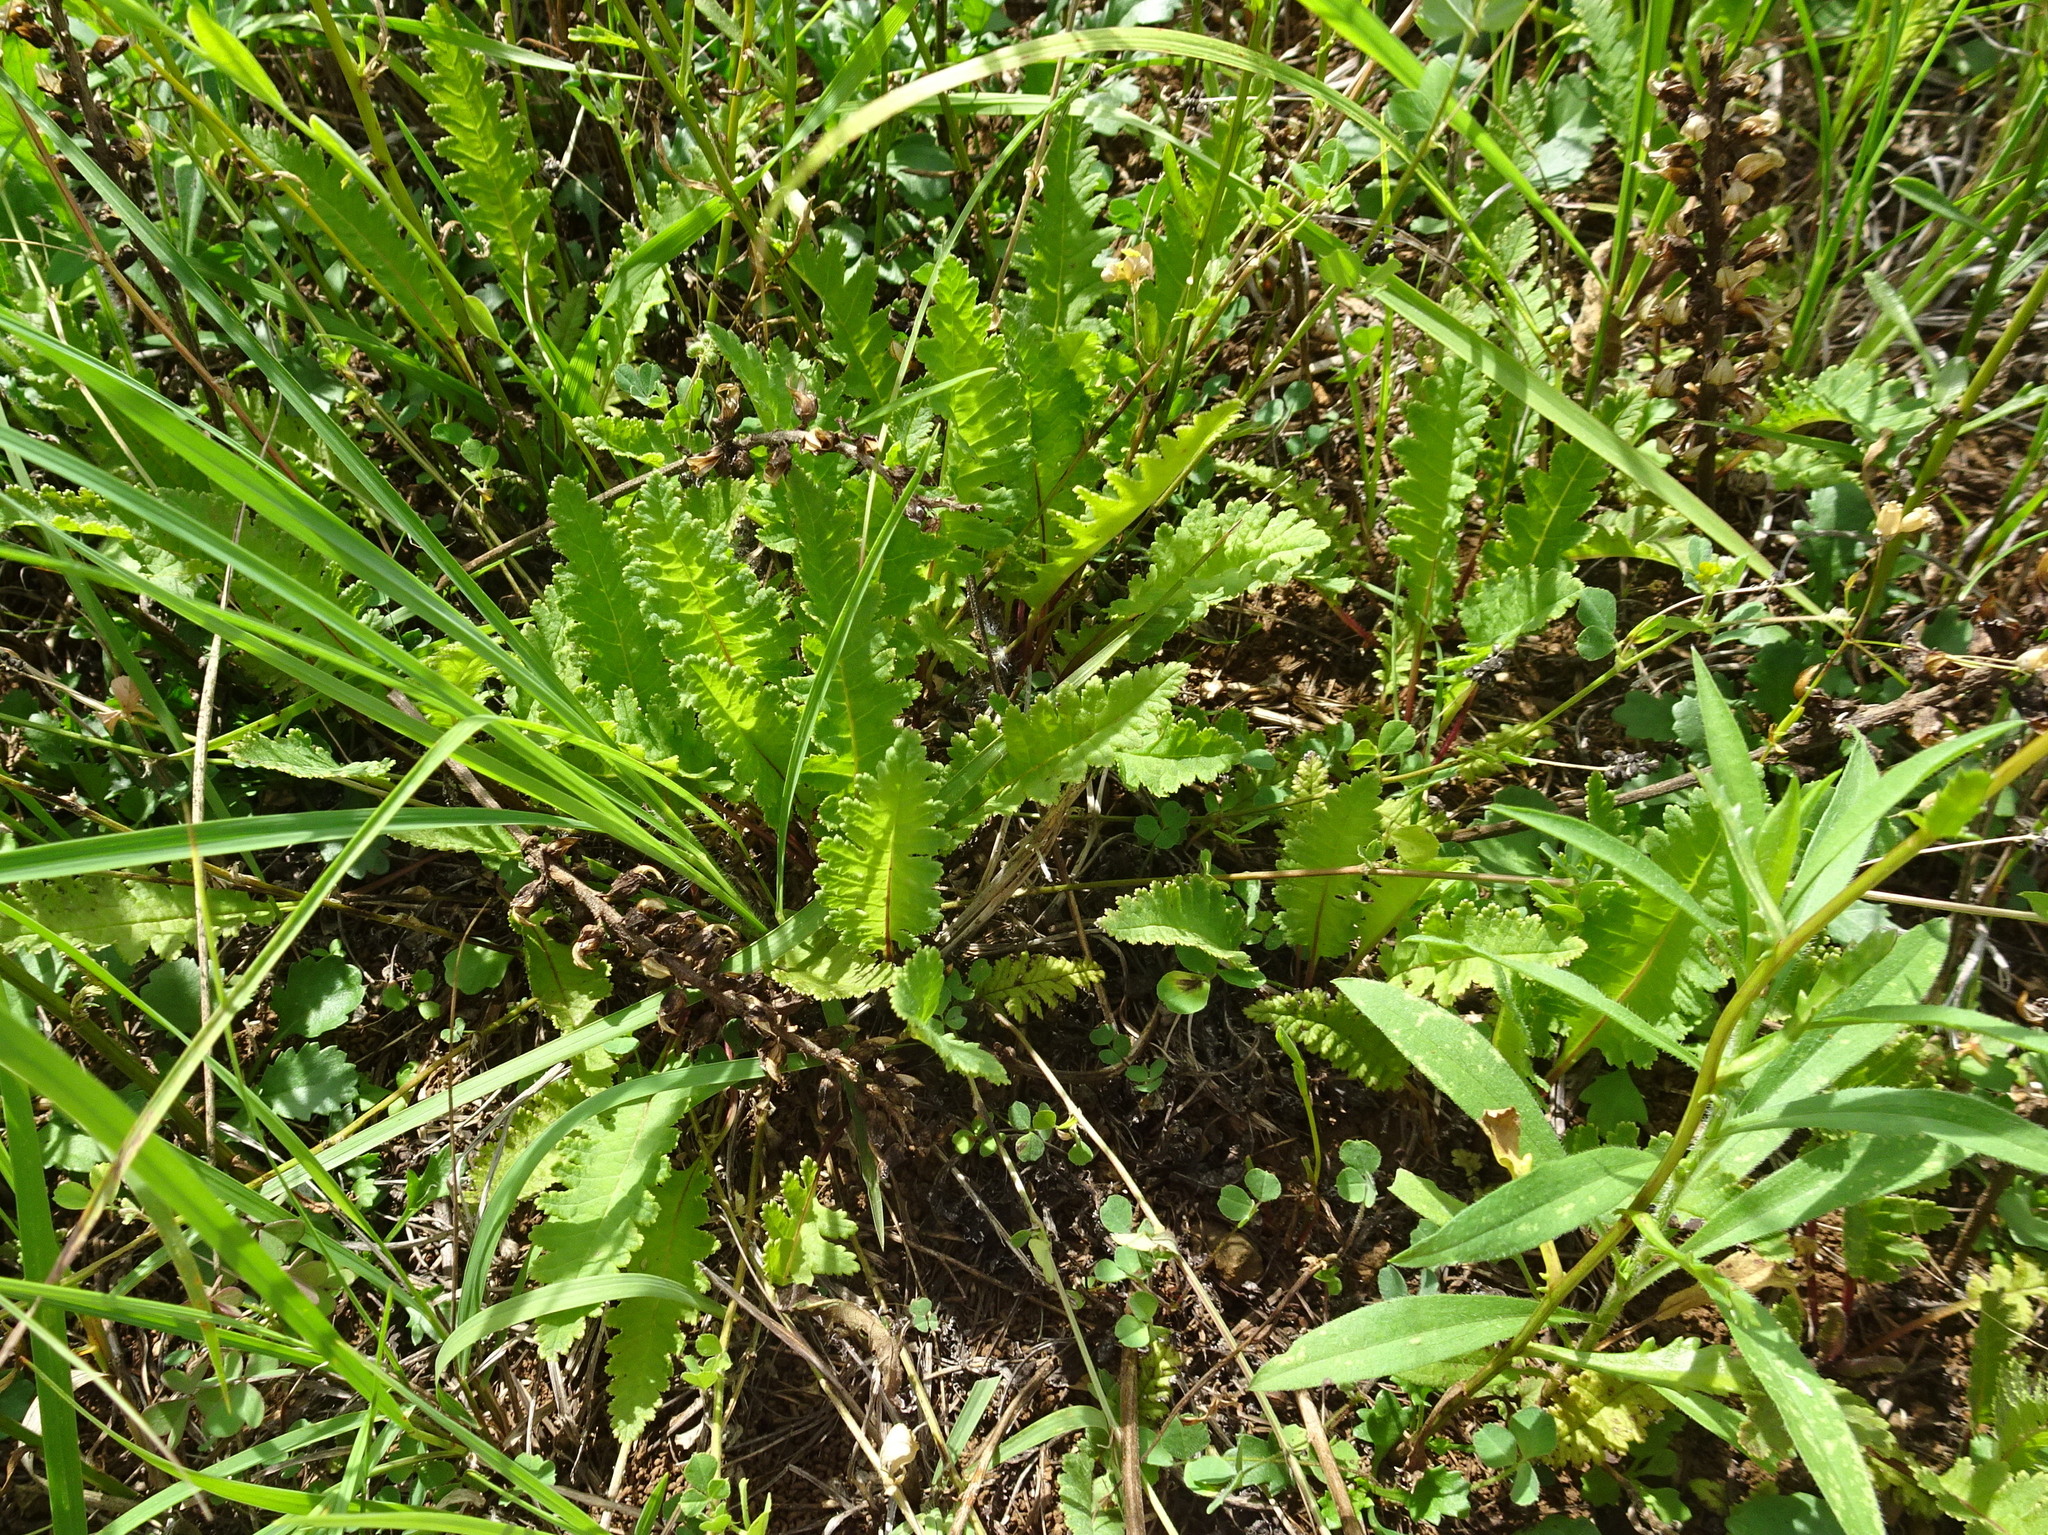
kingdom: Plantae
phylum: Tracheophyta
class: Magnoliopsida
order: Lamiales
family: Orobanchaceae
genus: Pedicularis
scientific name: Pedicularis canadensis
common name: Early lousewort
